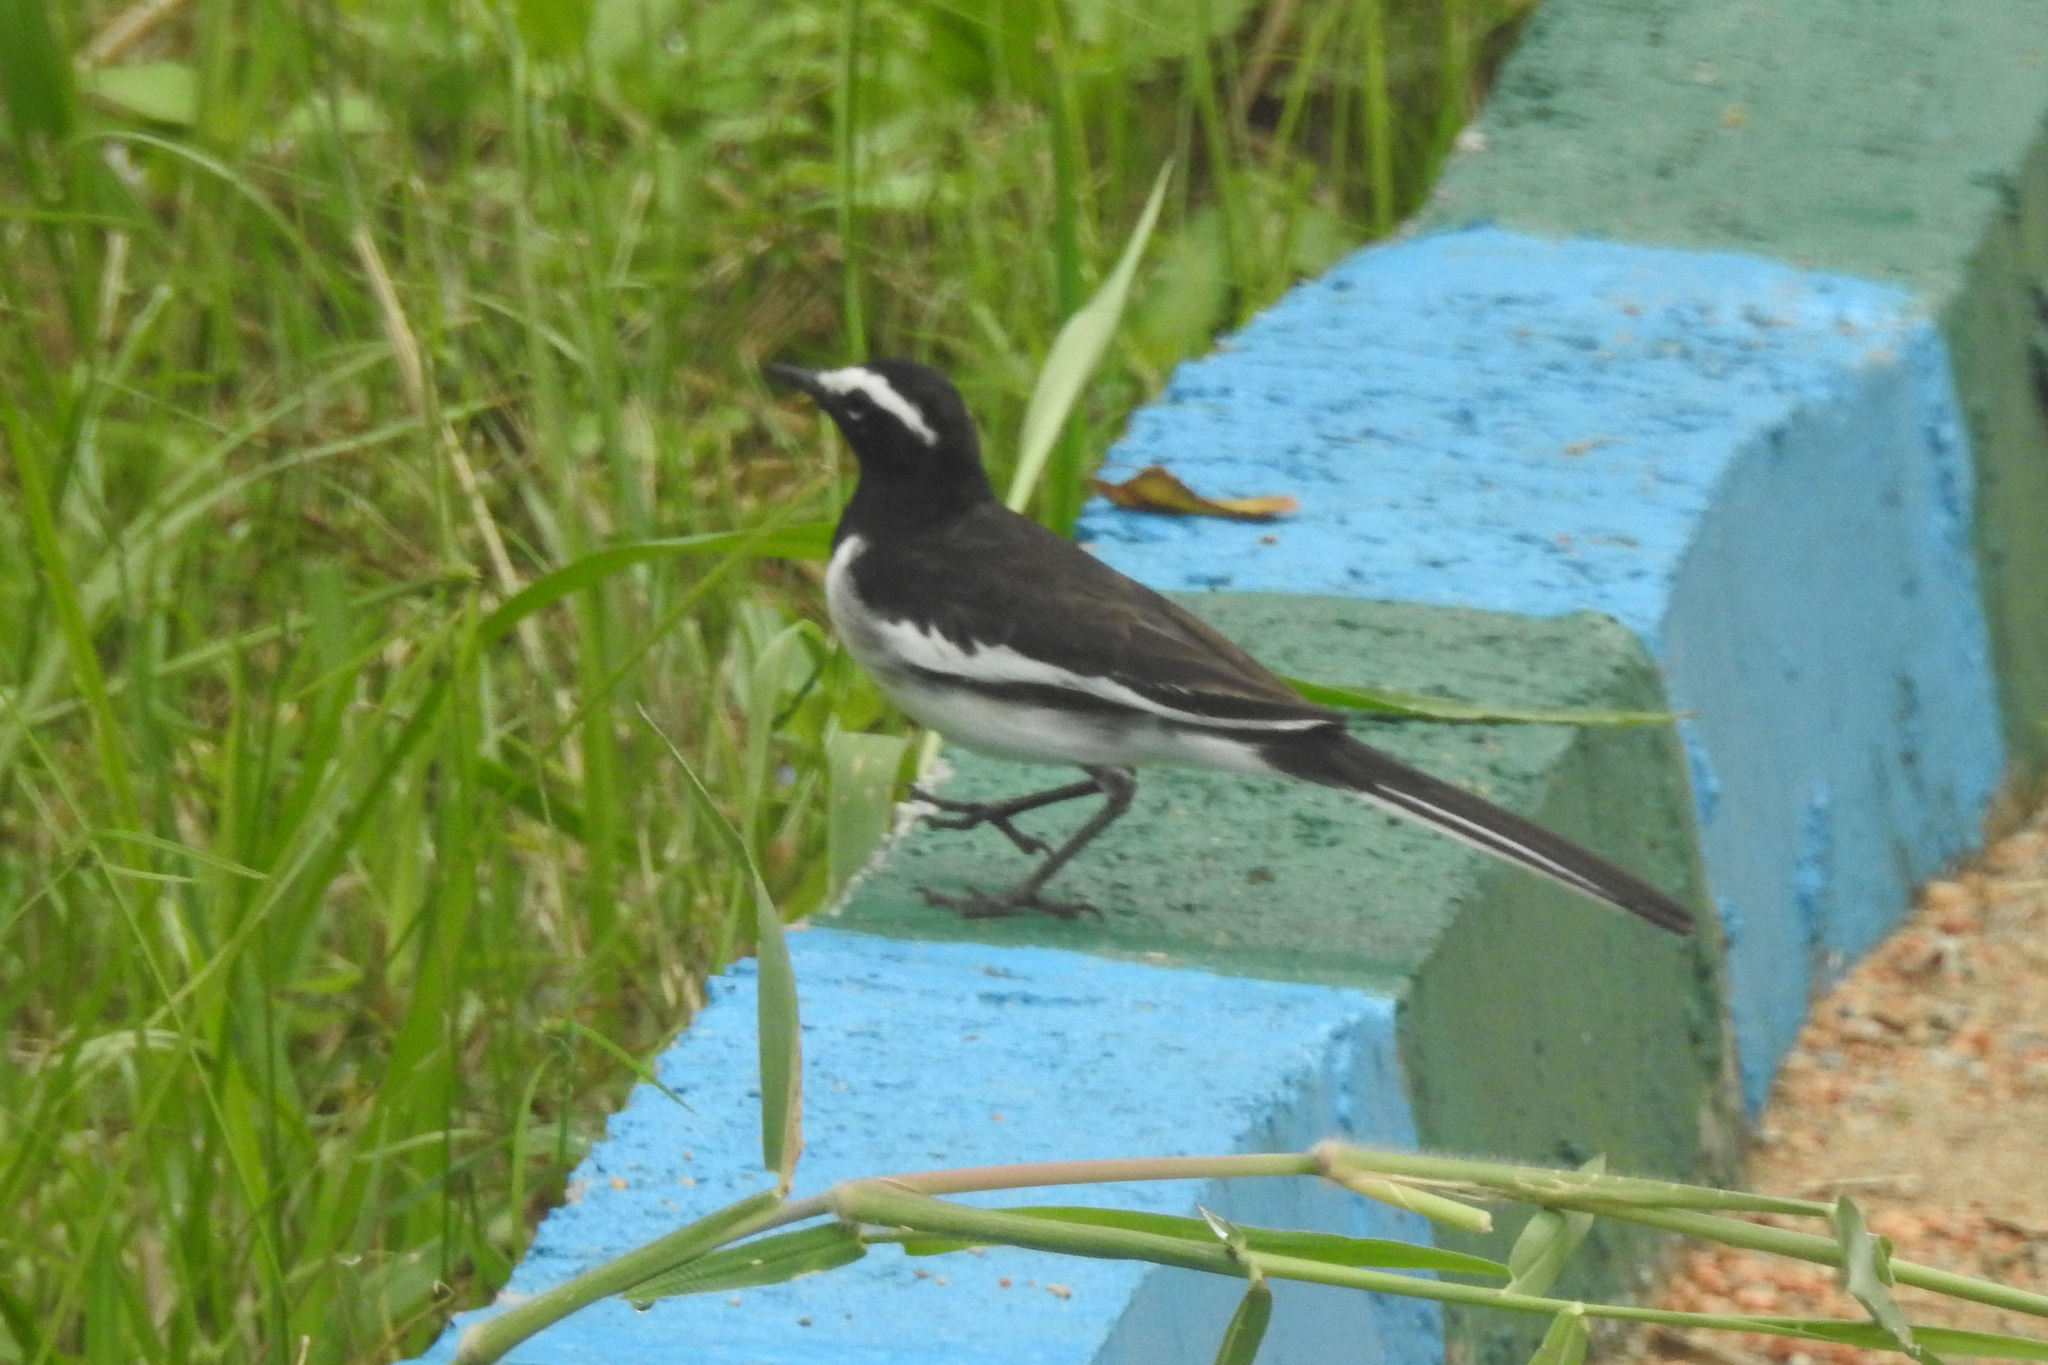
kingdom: Animalia
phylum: Chordata
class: Aves
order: Passeriformes
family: Motacillidae
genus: Motacilla
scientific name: Motacilla maderaspatensis
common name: White-browed wagtail
